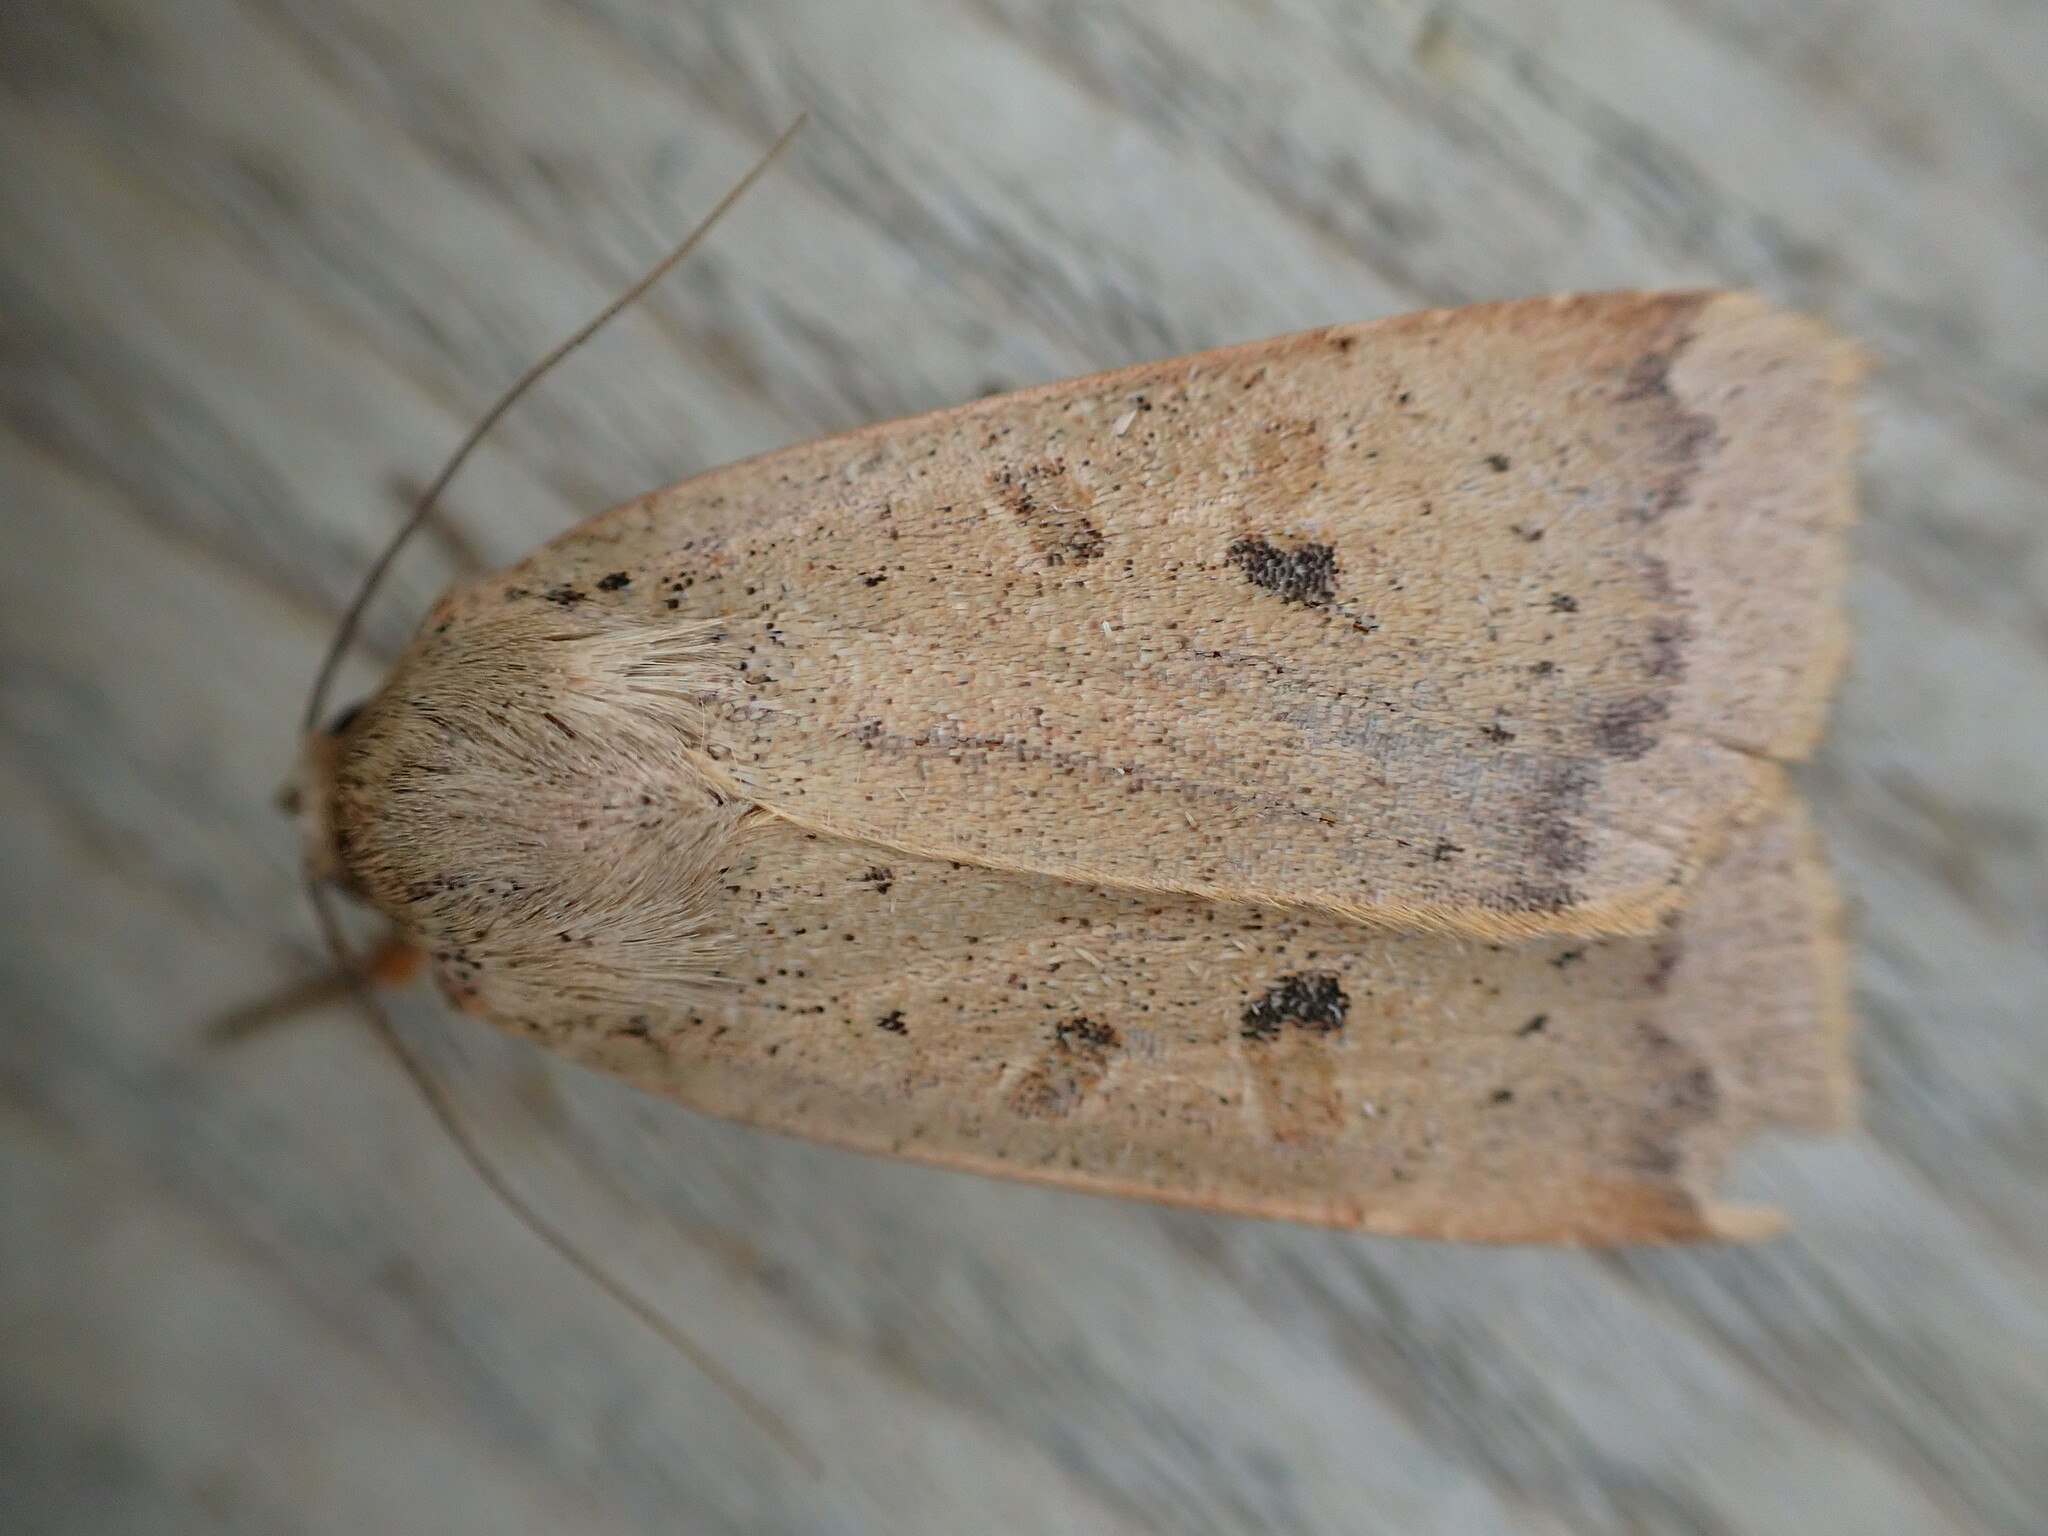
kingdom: Animalia
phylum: Arthropoda
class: Insecta
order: Lepidoptera
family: Noctuidae
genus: Noctua
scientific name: Noctua comes
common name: Lesser yellow underwing
